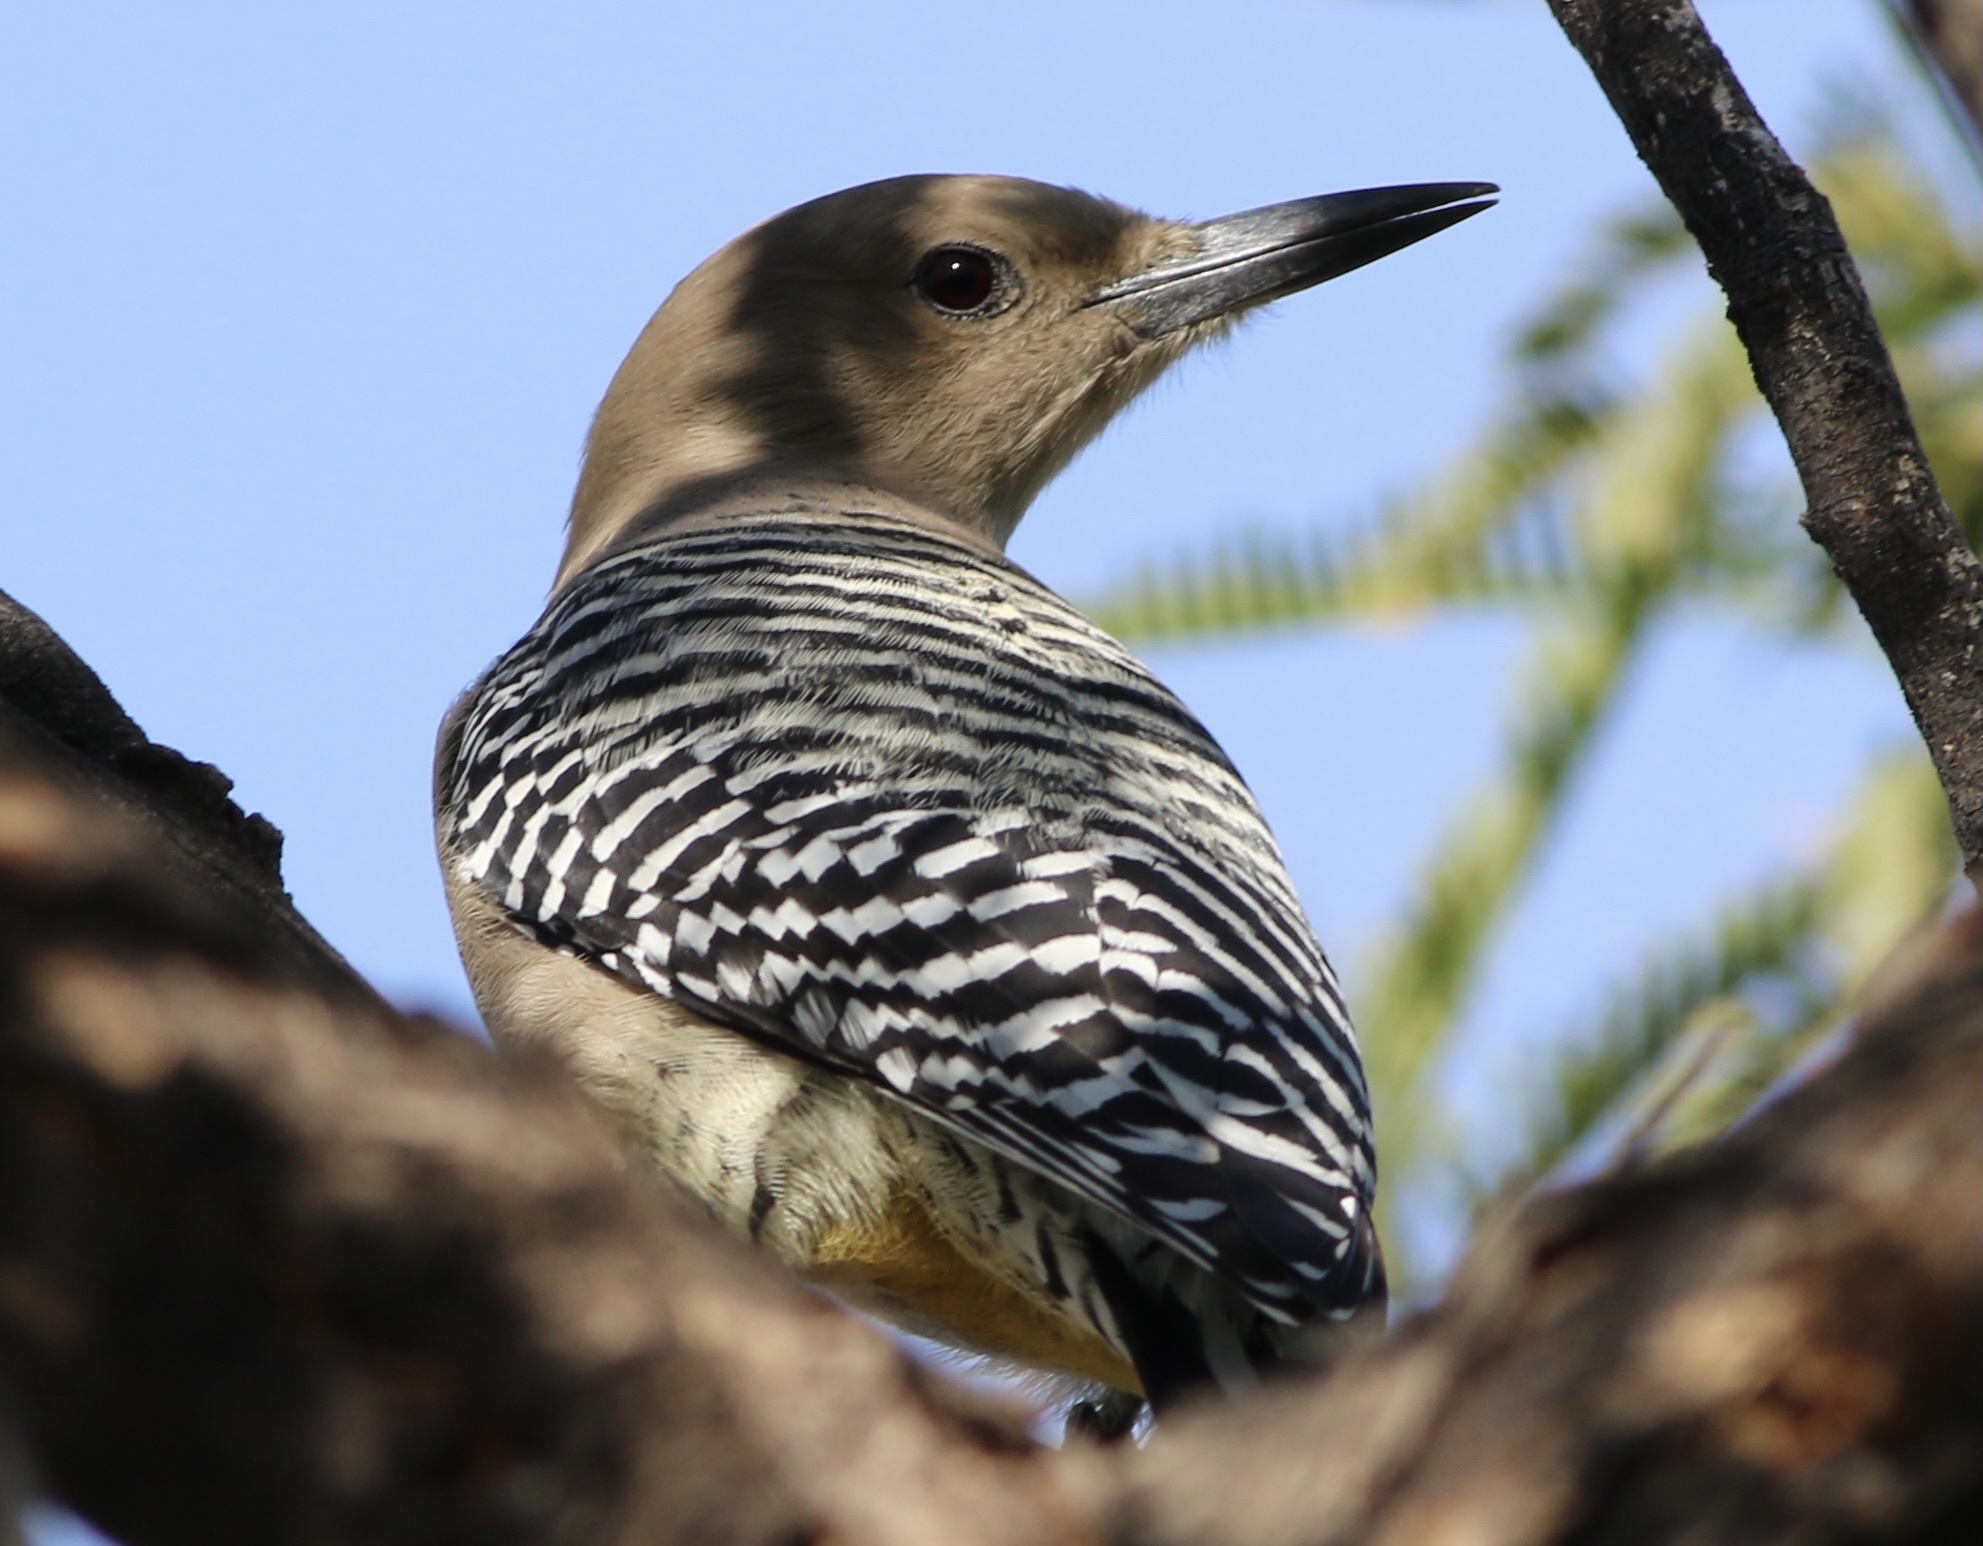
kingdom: Animalia
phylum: Chordata
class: Aves
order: Piciformes
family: Picidae
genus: Melanerpes
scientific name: Melanerpes uropygialis
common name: Gila woodpecker
